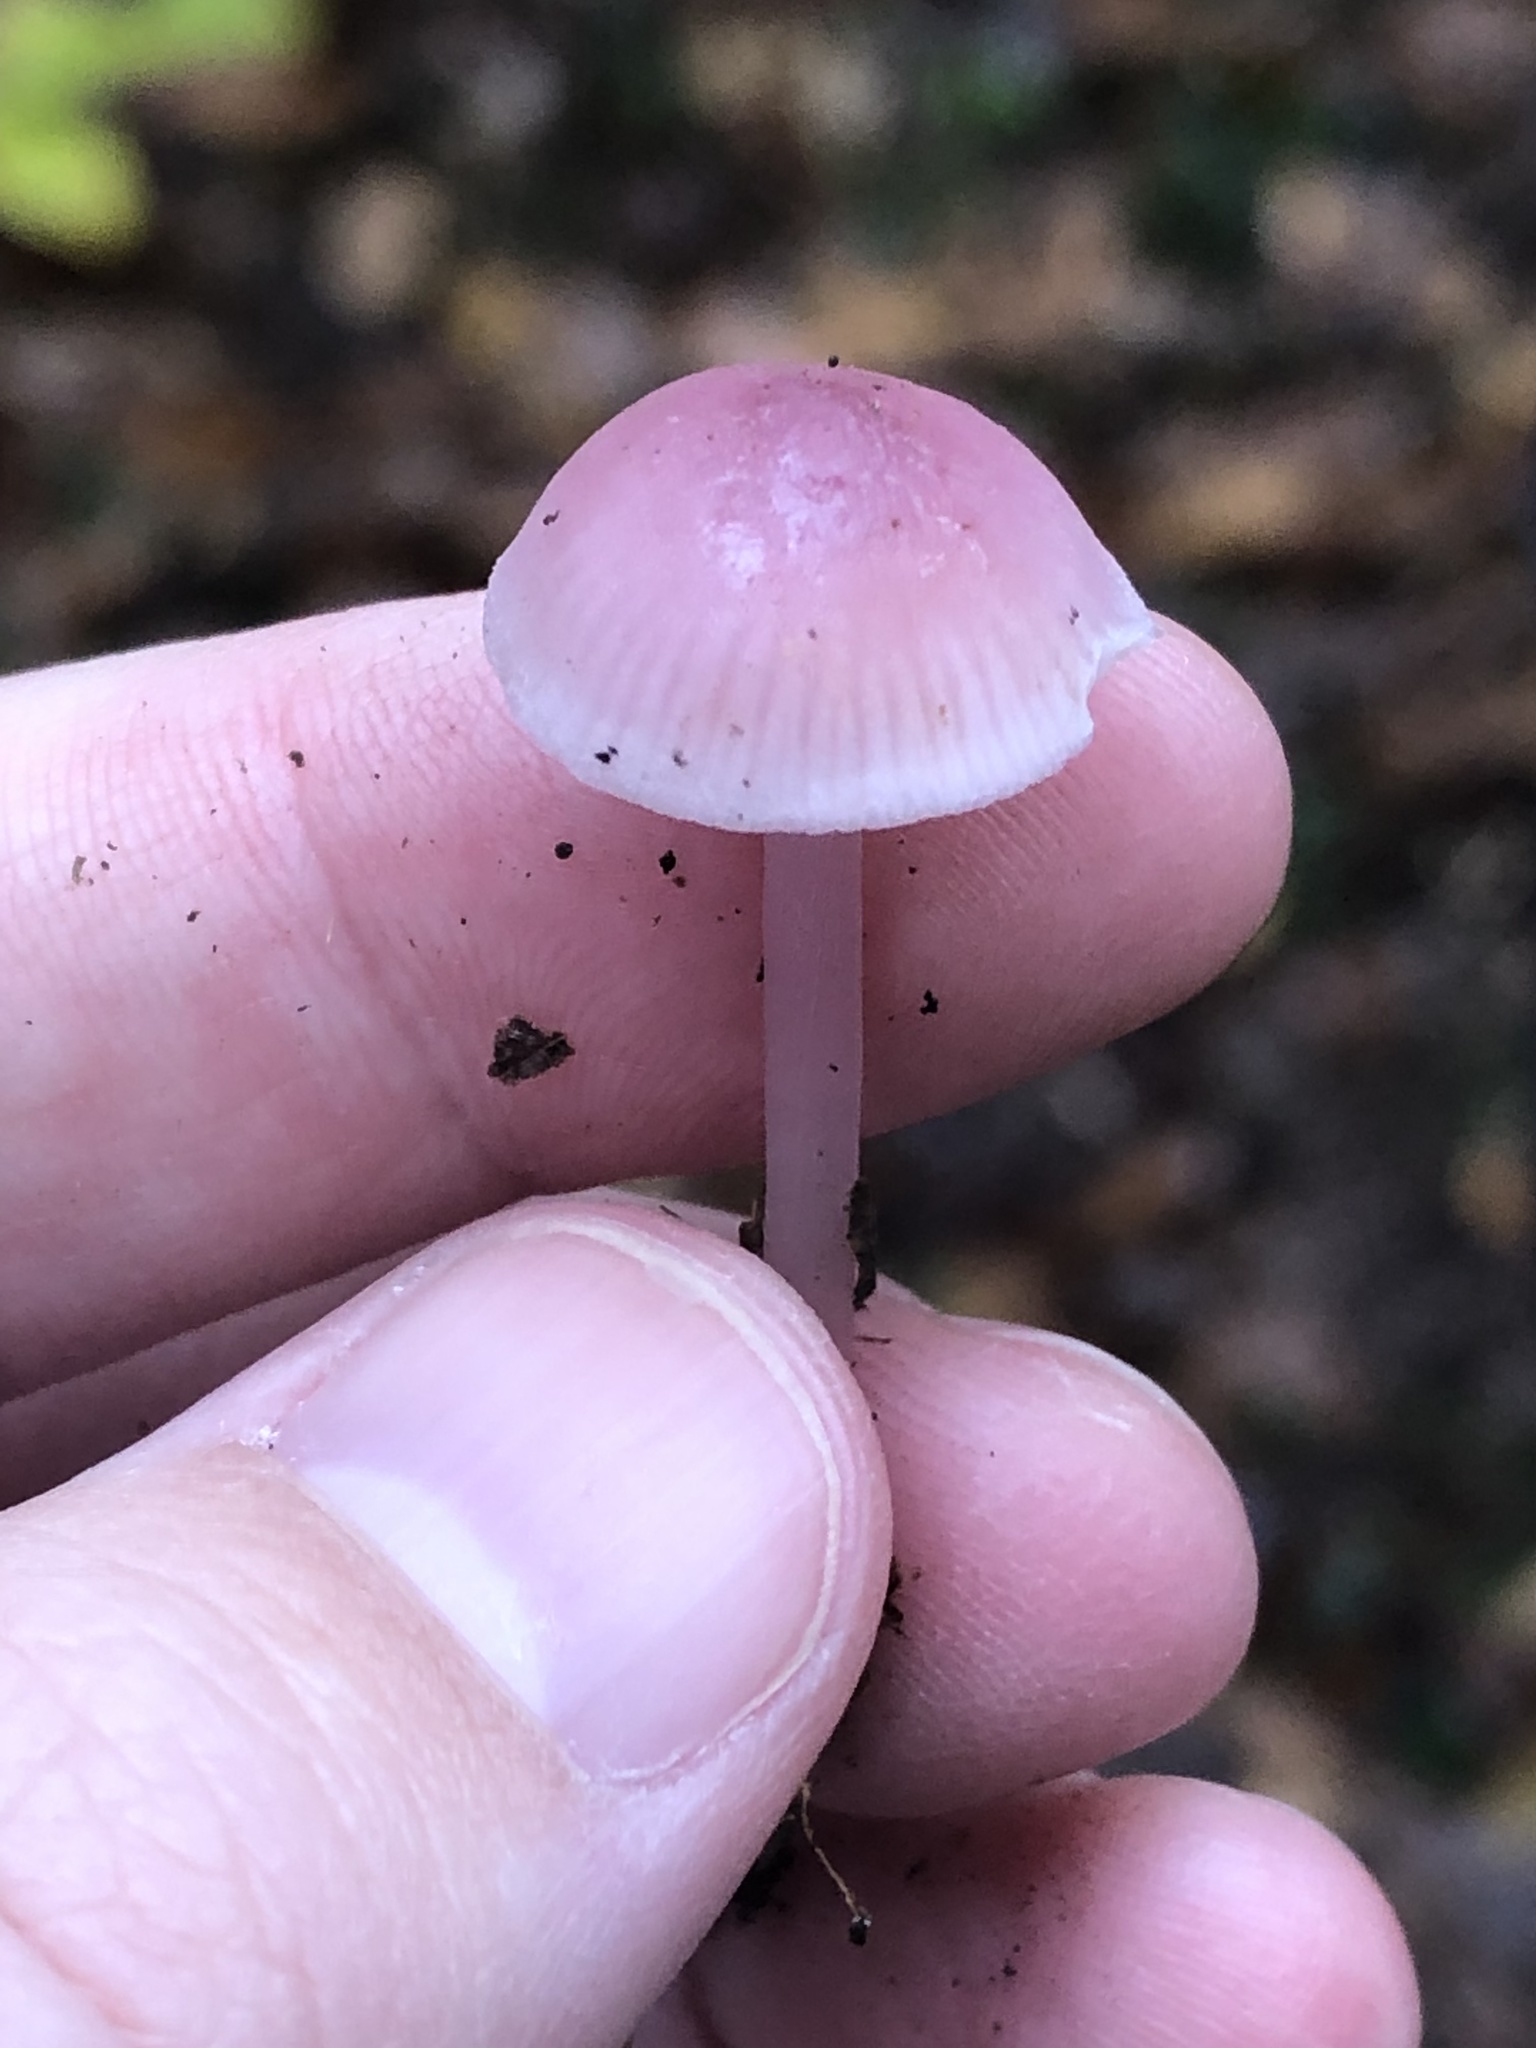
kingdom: Fungi
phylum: Basidiomycota
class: Agaricomycetes
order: Agaricales
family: Mycenaceae
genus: Mycena
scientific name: Mycena pura
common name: Lilac bonnet
